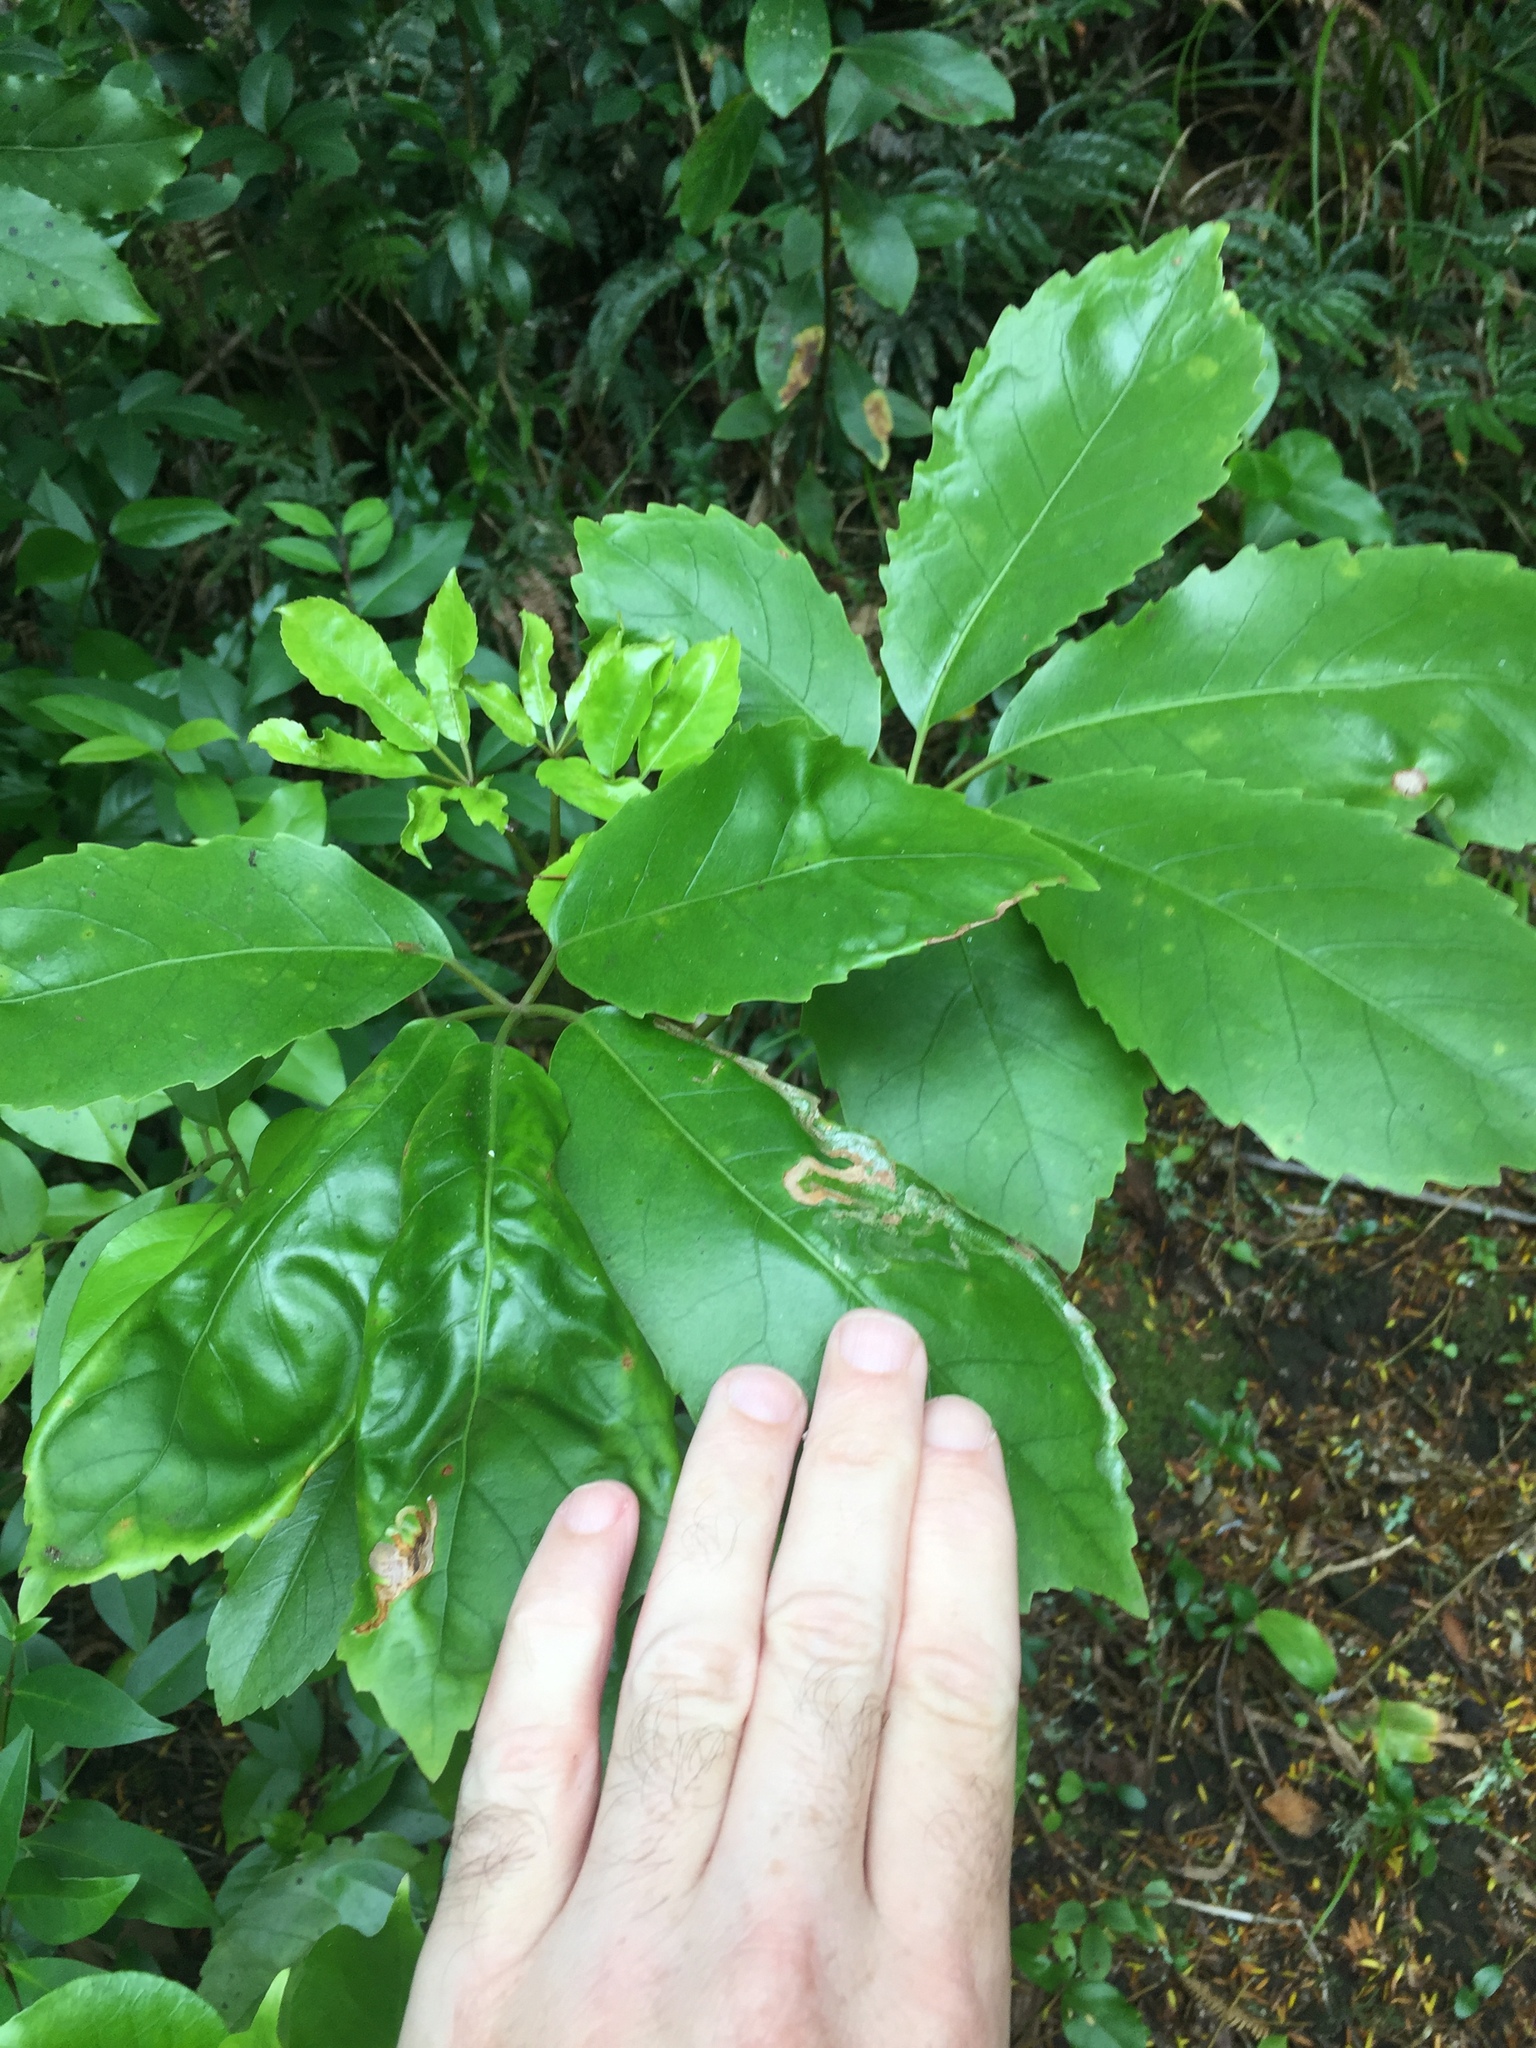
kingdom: Animalia
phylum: Arthropoda
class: Insecta
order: Lepidoptera
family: Gracillariidae
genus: Eumetriochroa
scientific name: Eumetriochroa panacitorsens
